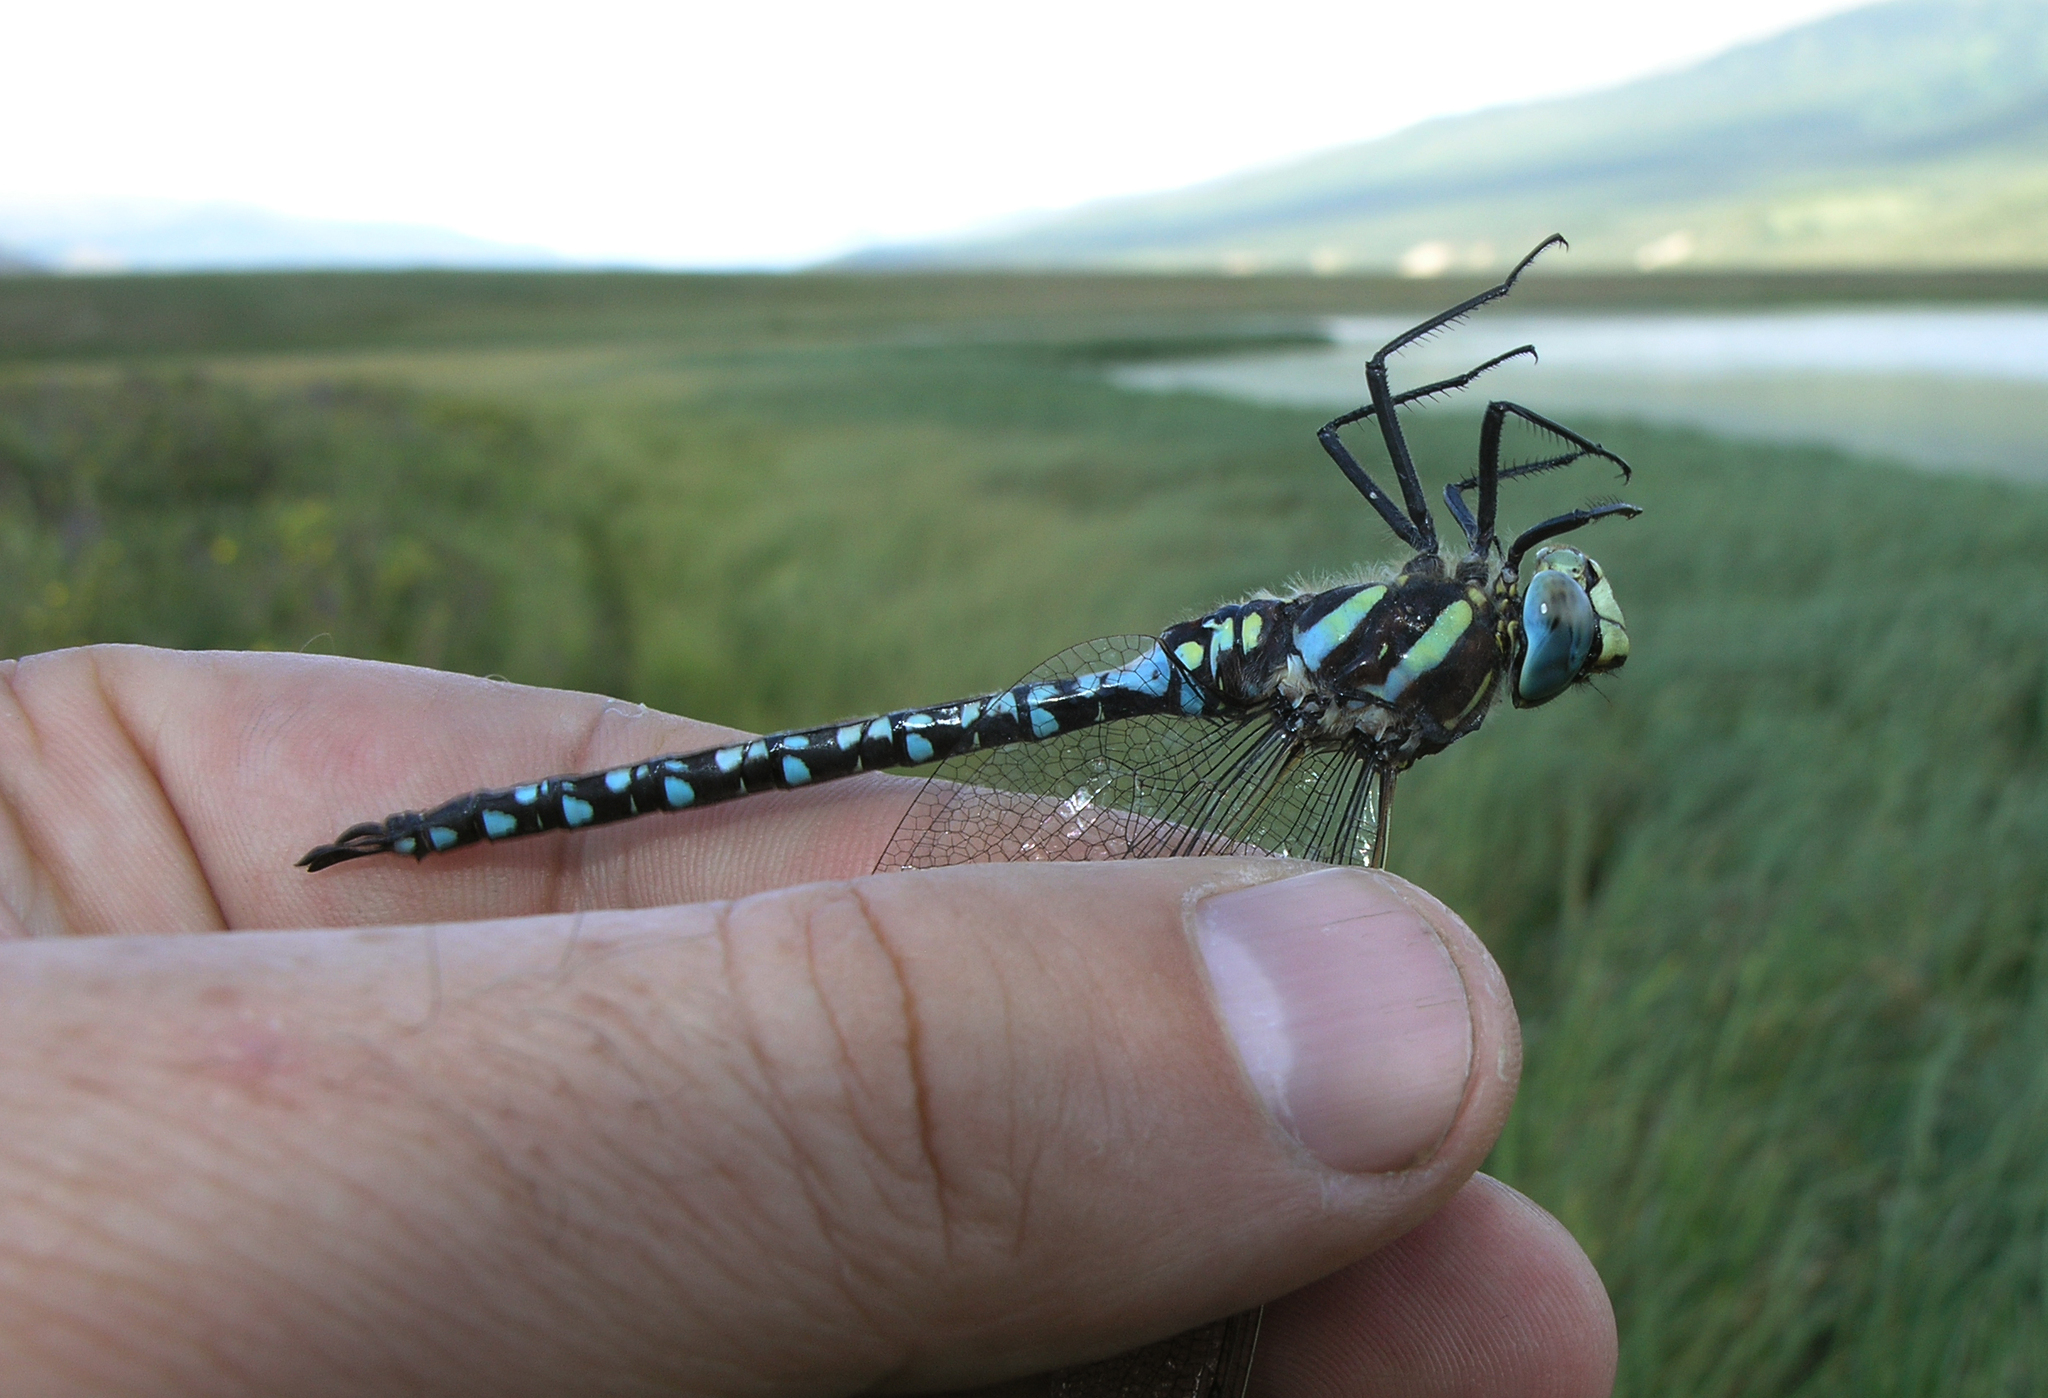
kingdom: Animalia
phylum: Arthropoda
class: Insecta
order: Odonata
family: Aeshnidae
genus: Aeshna
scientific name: Aeshna juncea
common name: Moorland hawker
